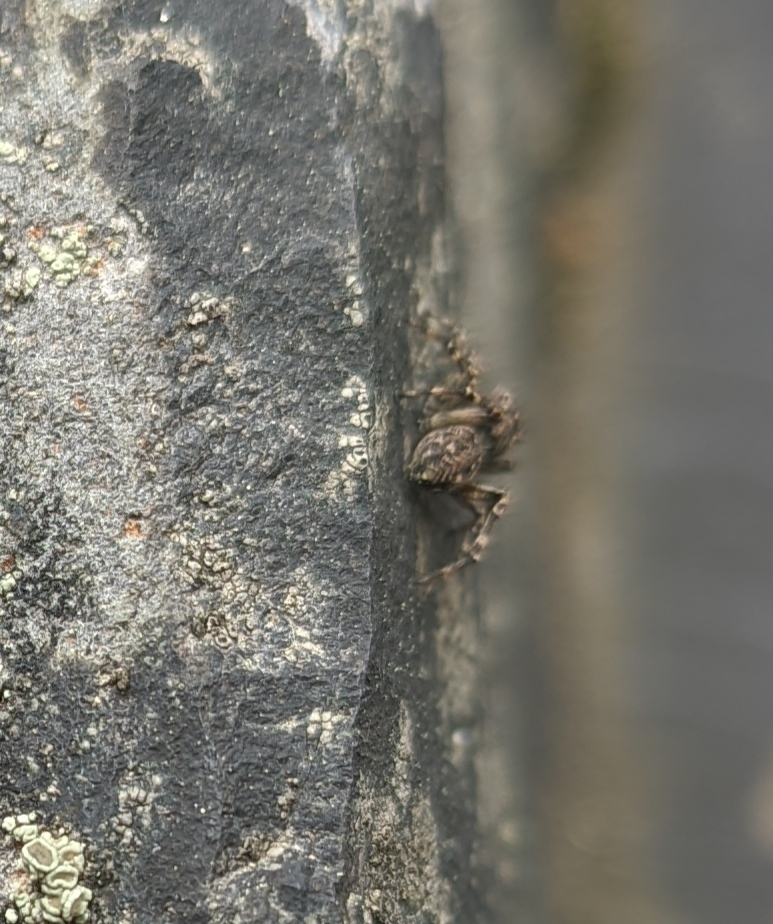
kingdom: Animalia
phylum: Arthropoda
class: Arachnida
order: Araneae
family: Salticidae
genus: Attulus
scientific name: Attulus pubescens
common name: Jumping spider
